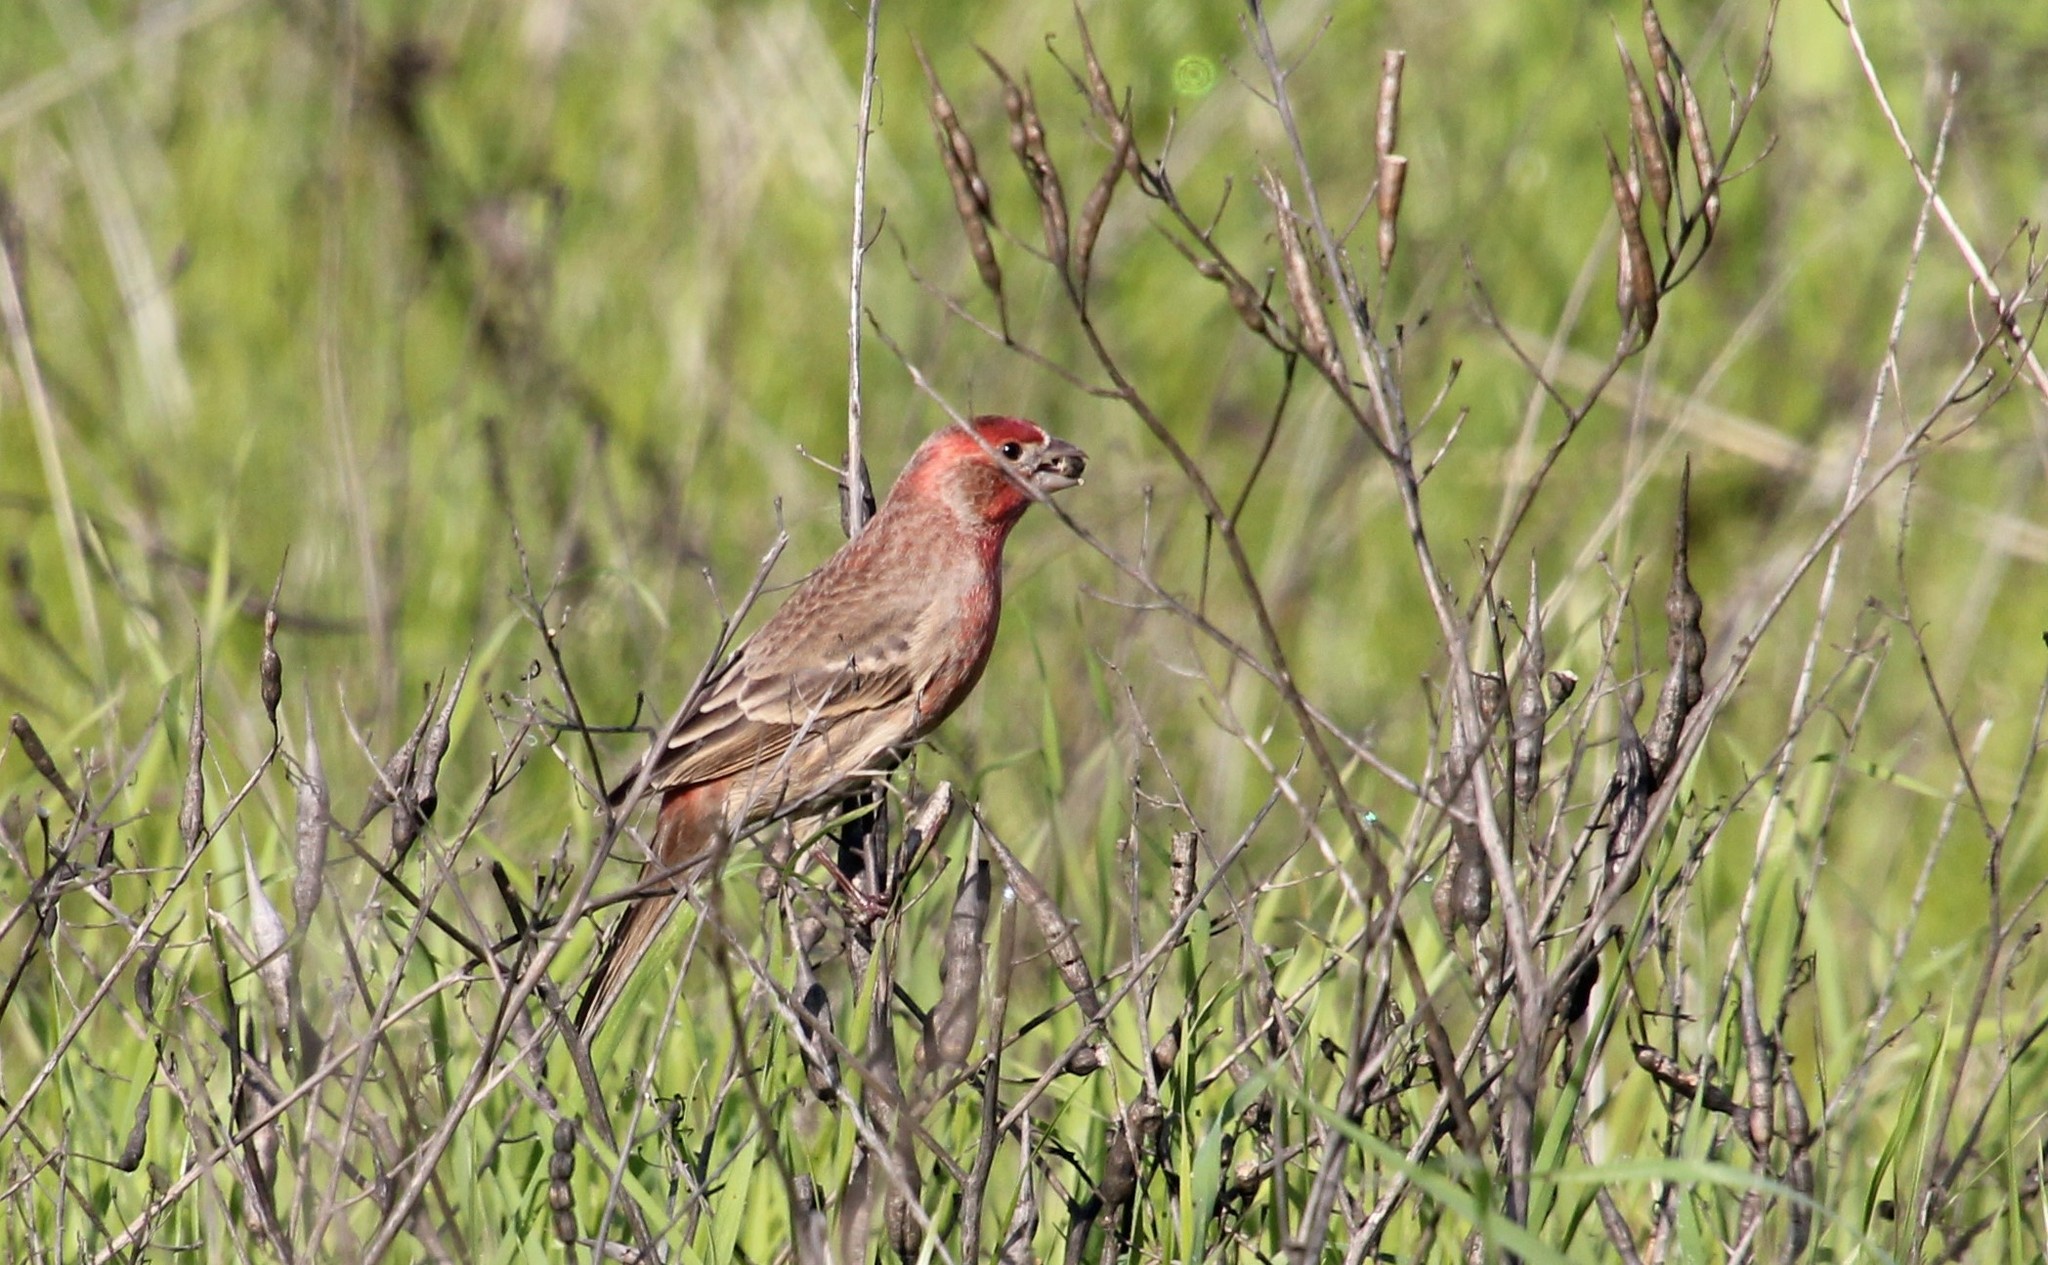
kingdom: Animalia
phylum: Chordata
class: Aves
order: Passeriformes
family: Fringillidae
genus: Haemorhous
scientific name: Haemorhous mexicanus
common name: House finch
